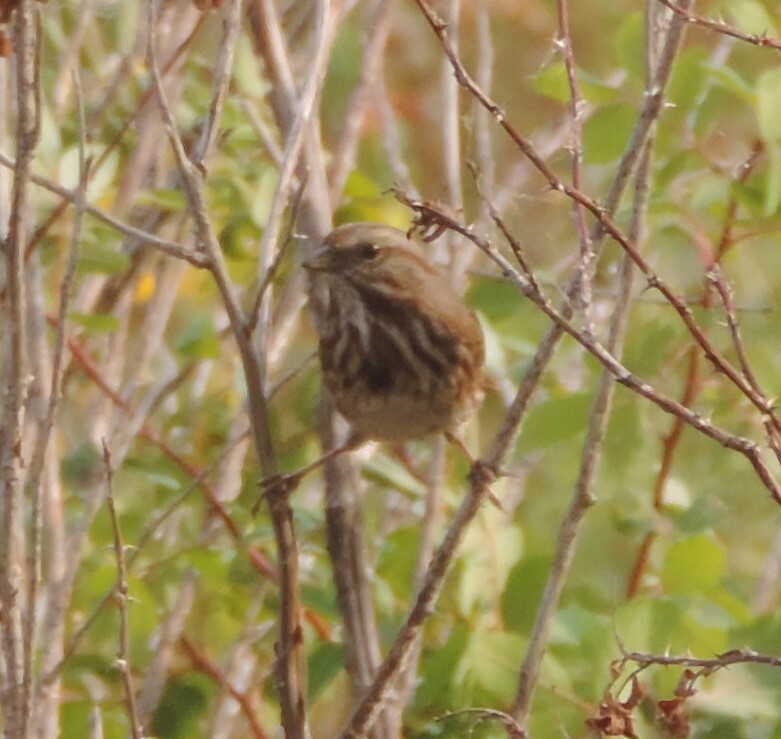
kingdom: Animalia
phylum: Chordata
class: Aves
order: Passeriformes
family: Passerellidae
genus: Melospiza
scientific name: Melospiza melodia
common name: Song sparrow
